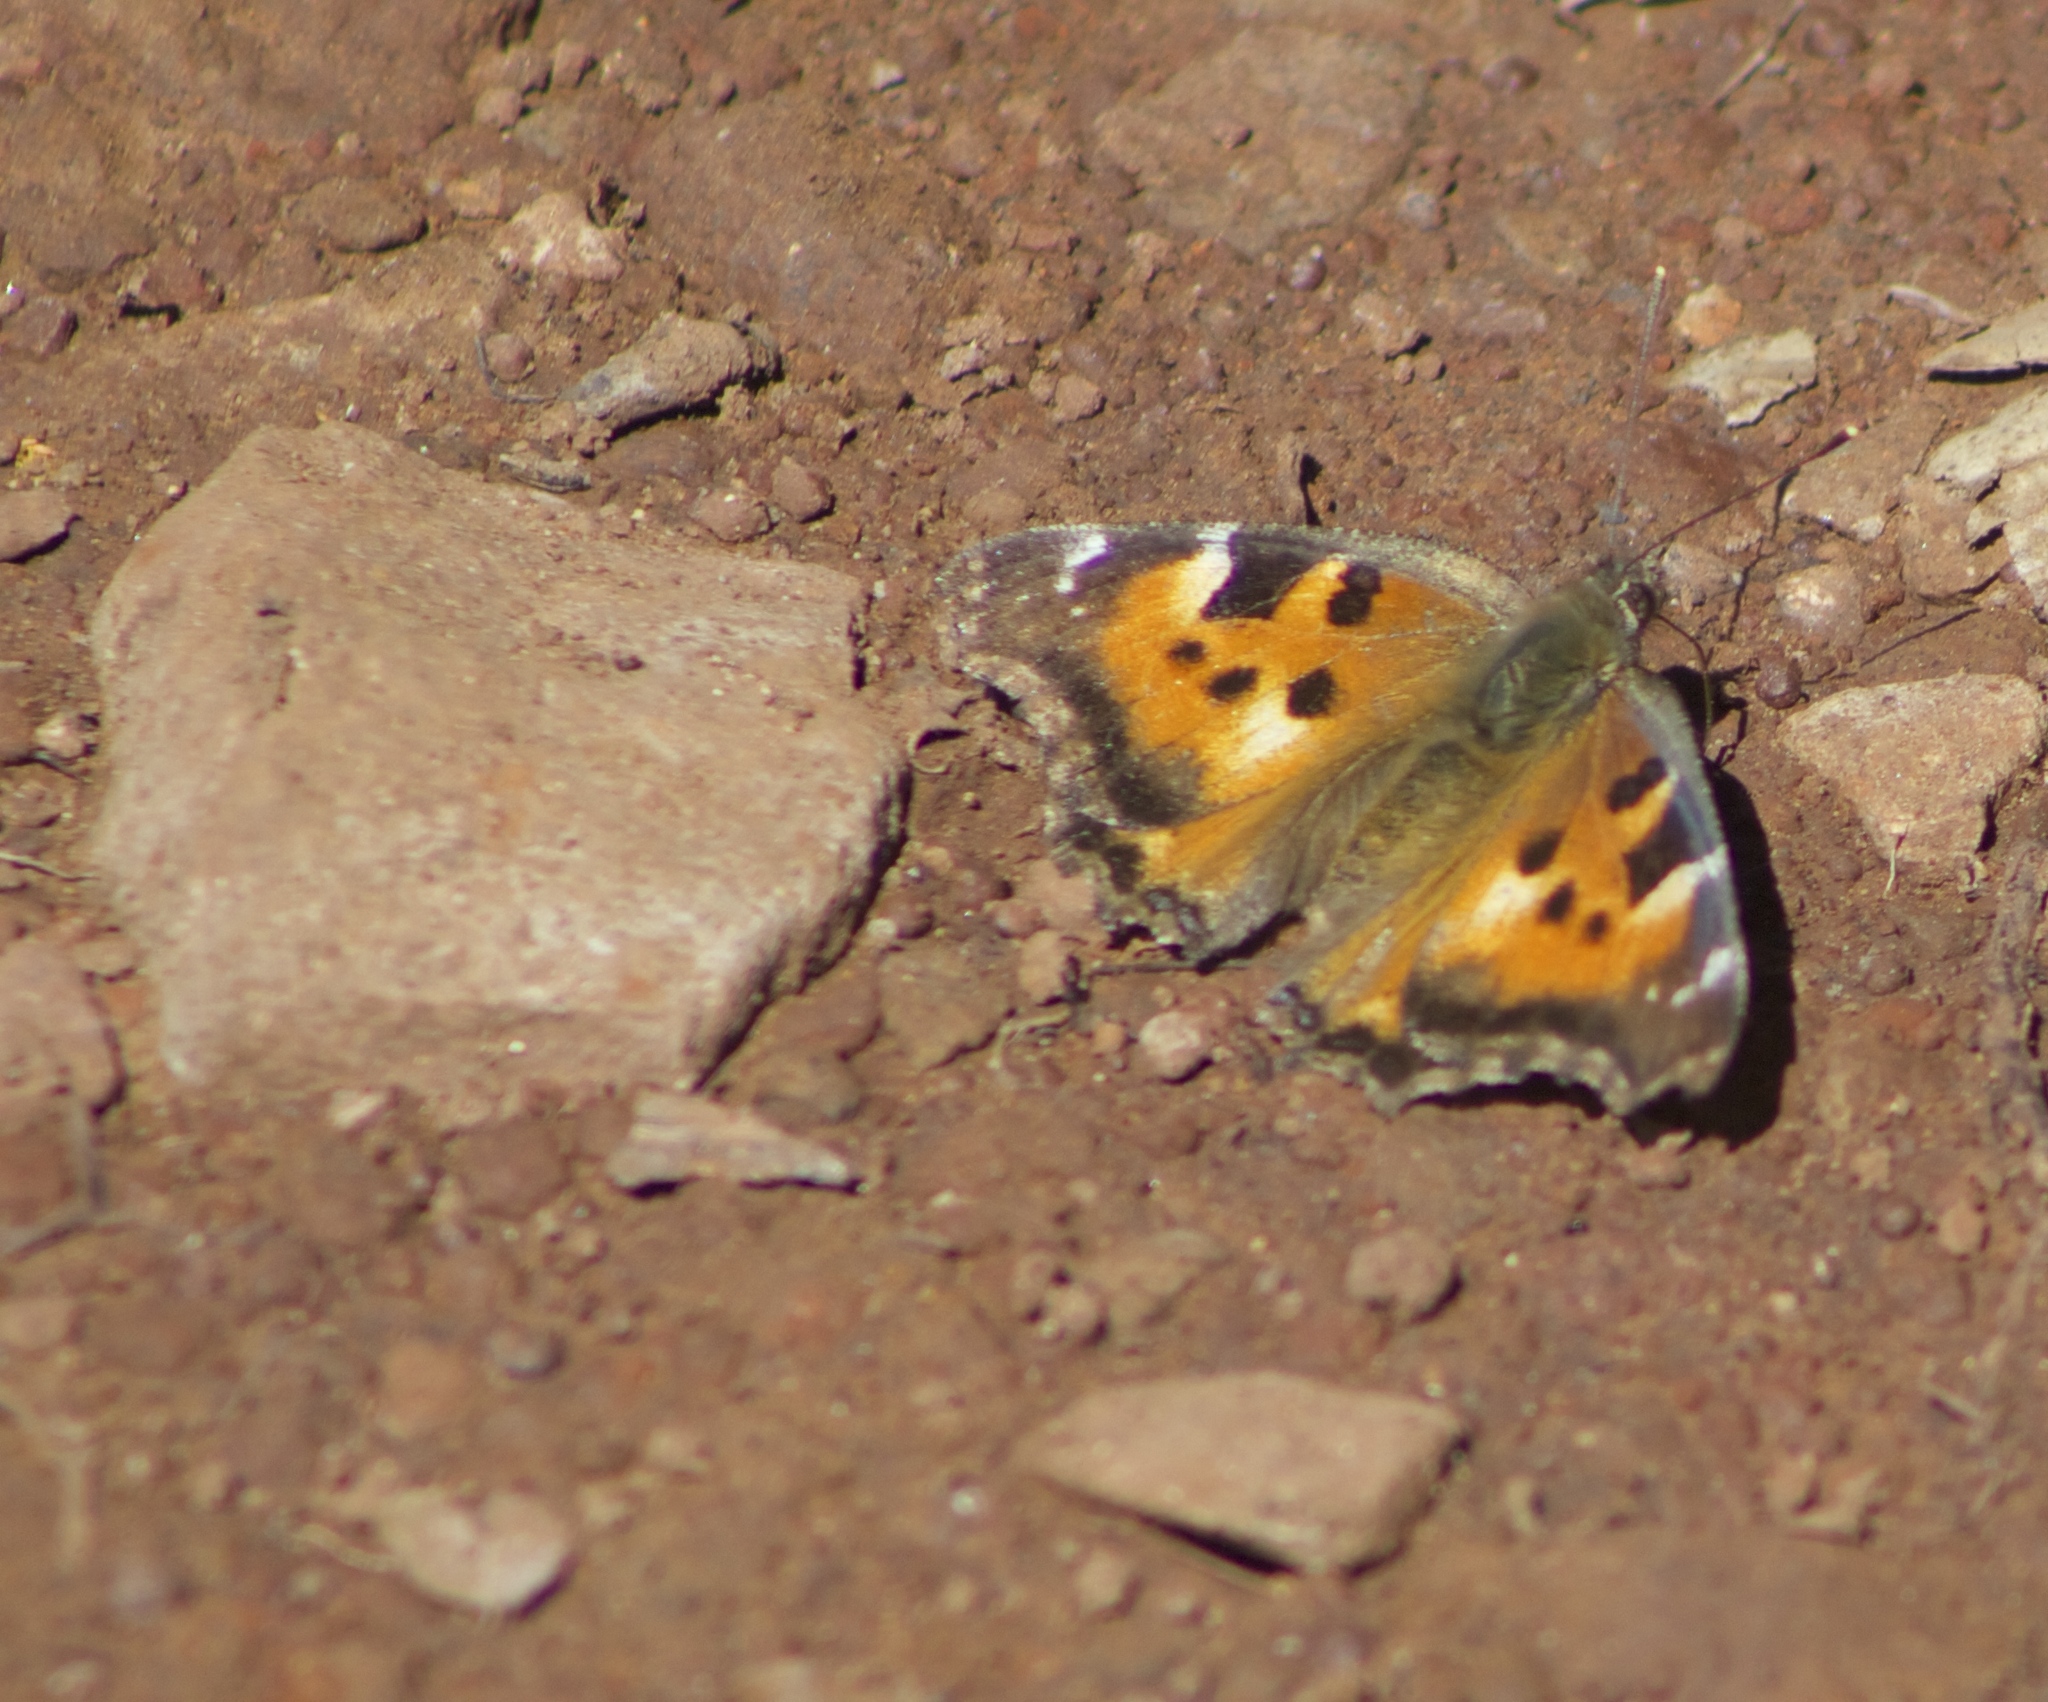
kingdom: Animalia
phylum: Arthropoda
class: Insecta
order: Lepidoptera
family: Nymphalidae
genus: Nymphalis
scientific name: Nymphalis californica
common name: California tortoiseshell
